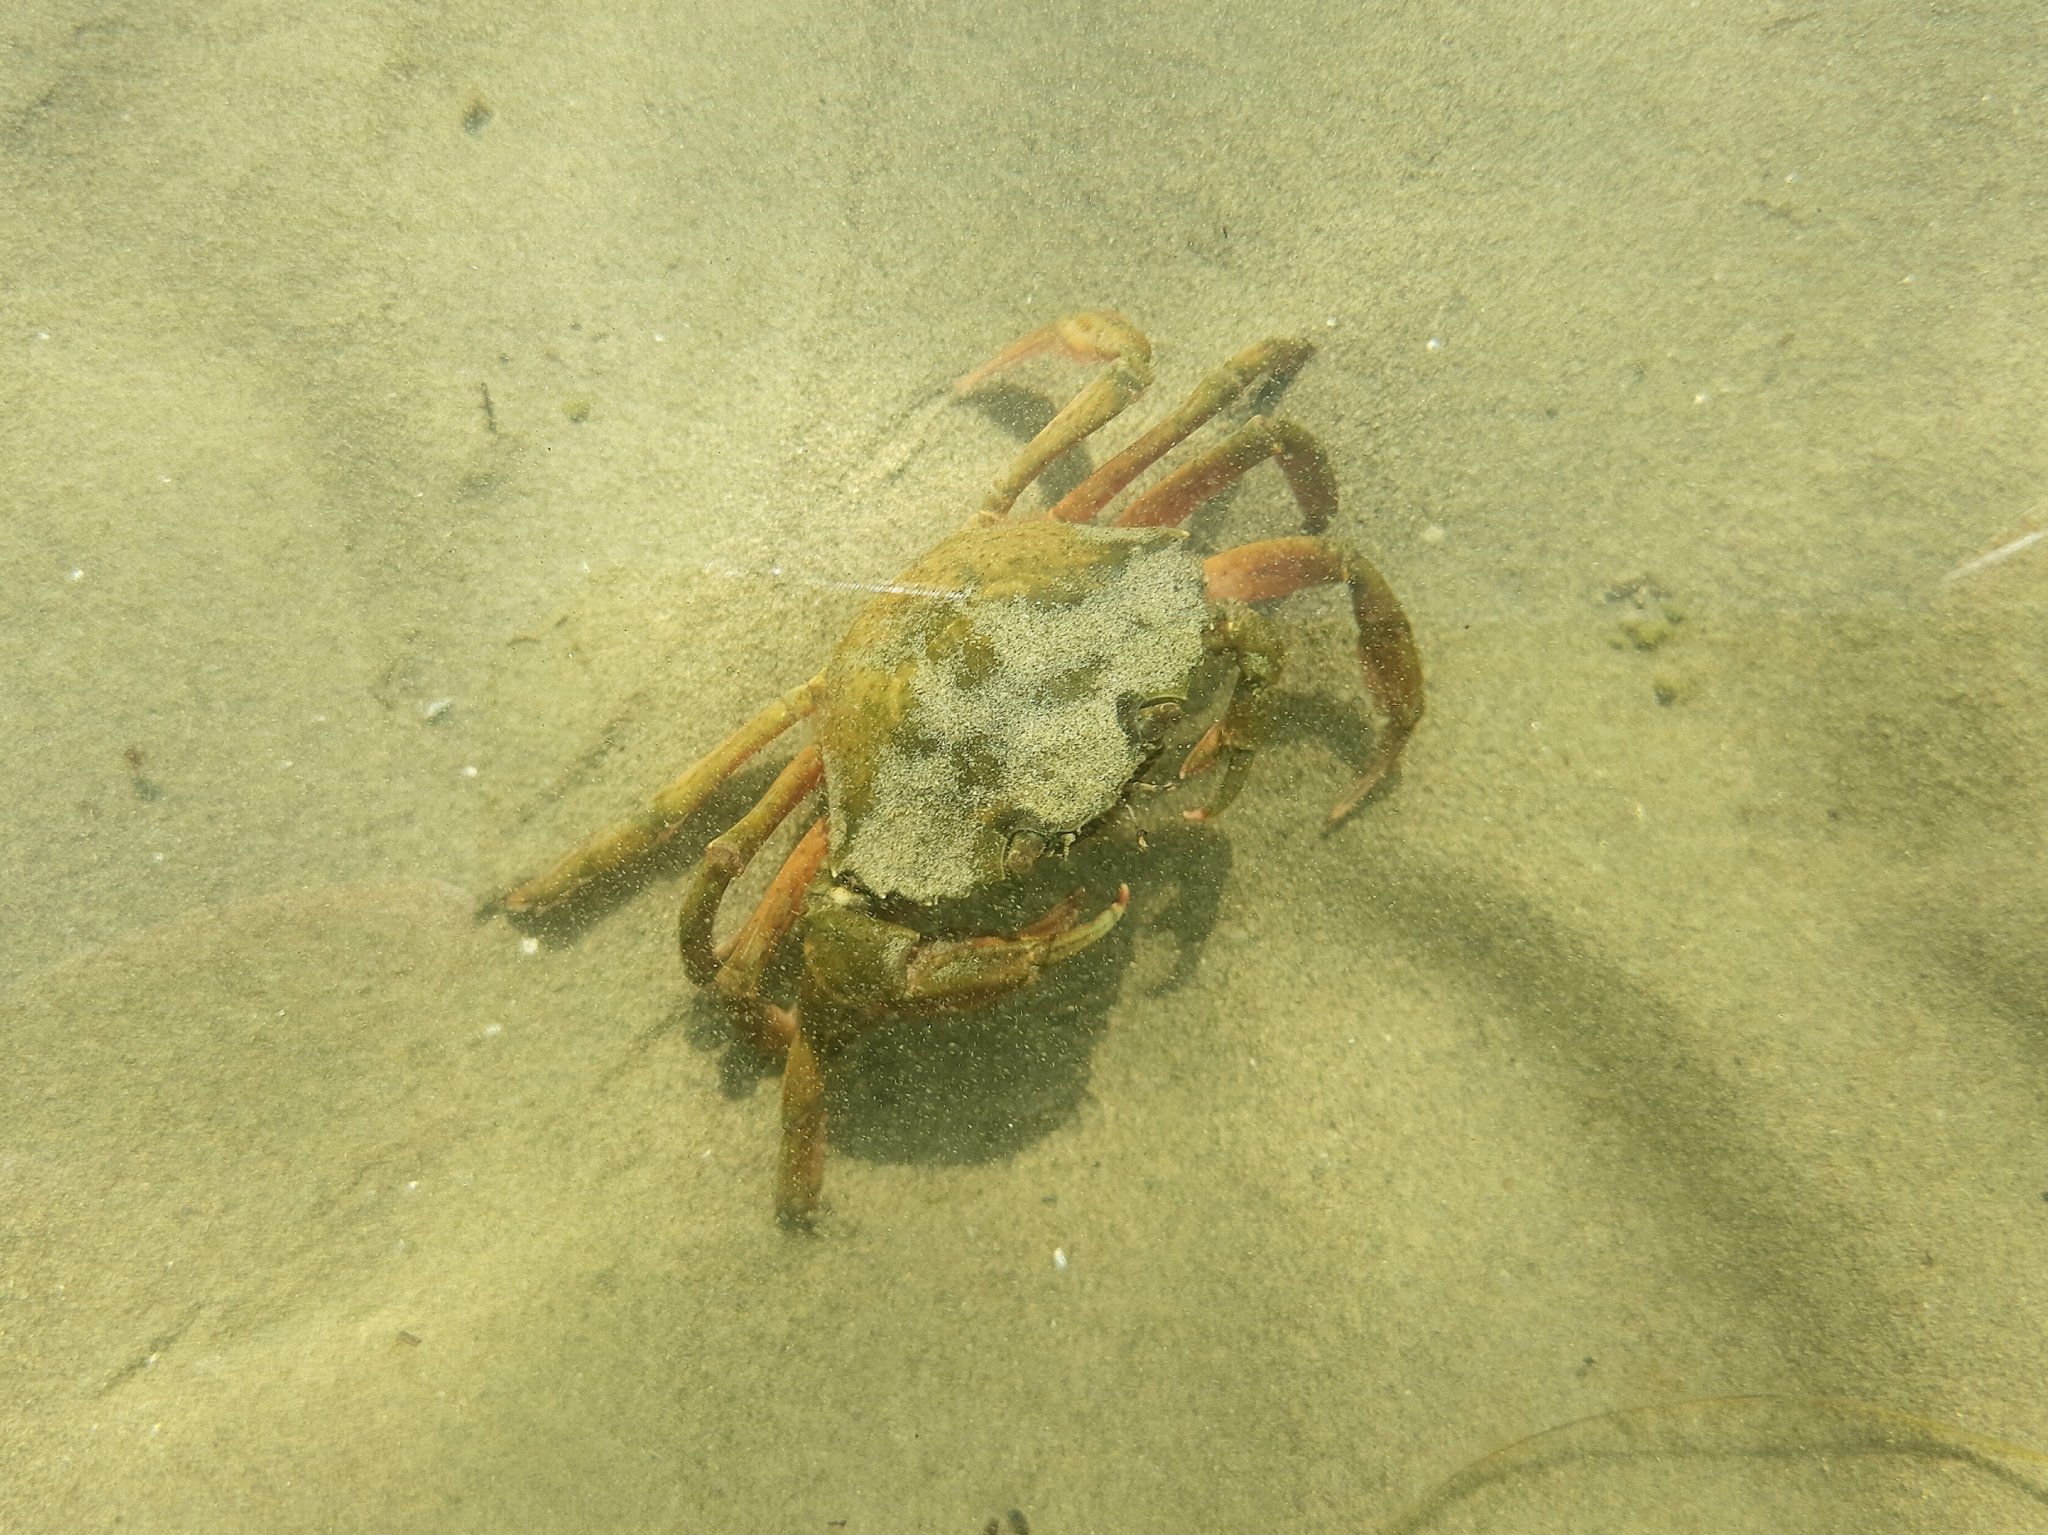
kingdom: Animalia
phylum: Arthropoda
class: Malacostraca
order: Decapoda
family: Carcinidae
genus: Carcinus
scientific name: Carcinus aestuarii
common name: Mediterranean green crab
